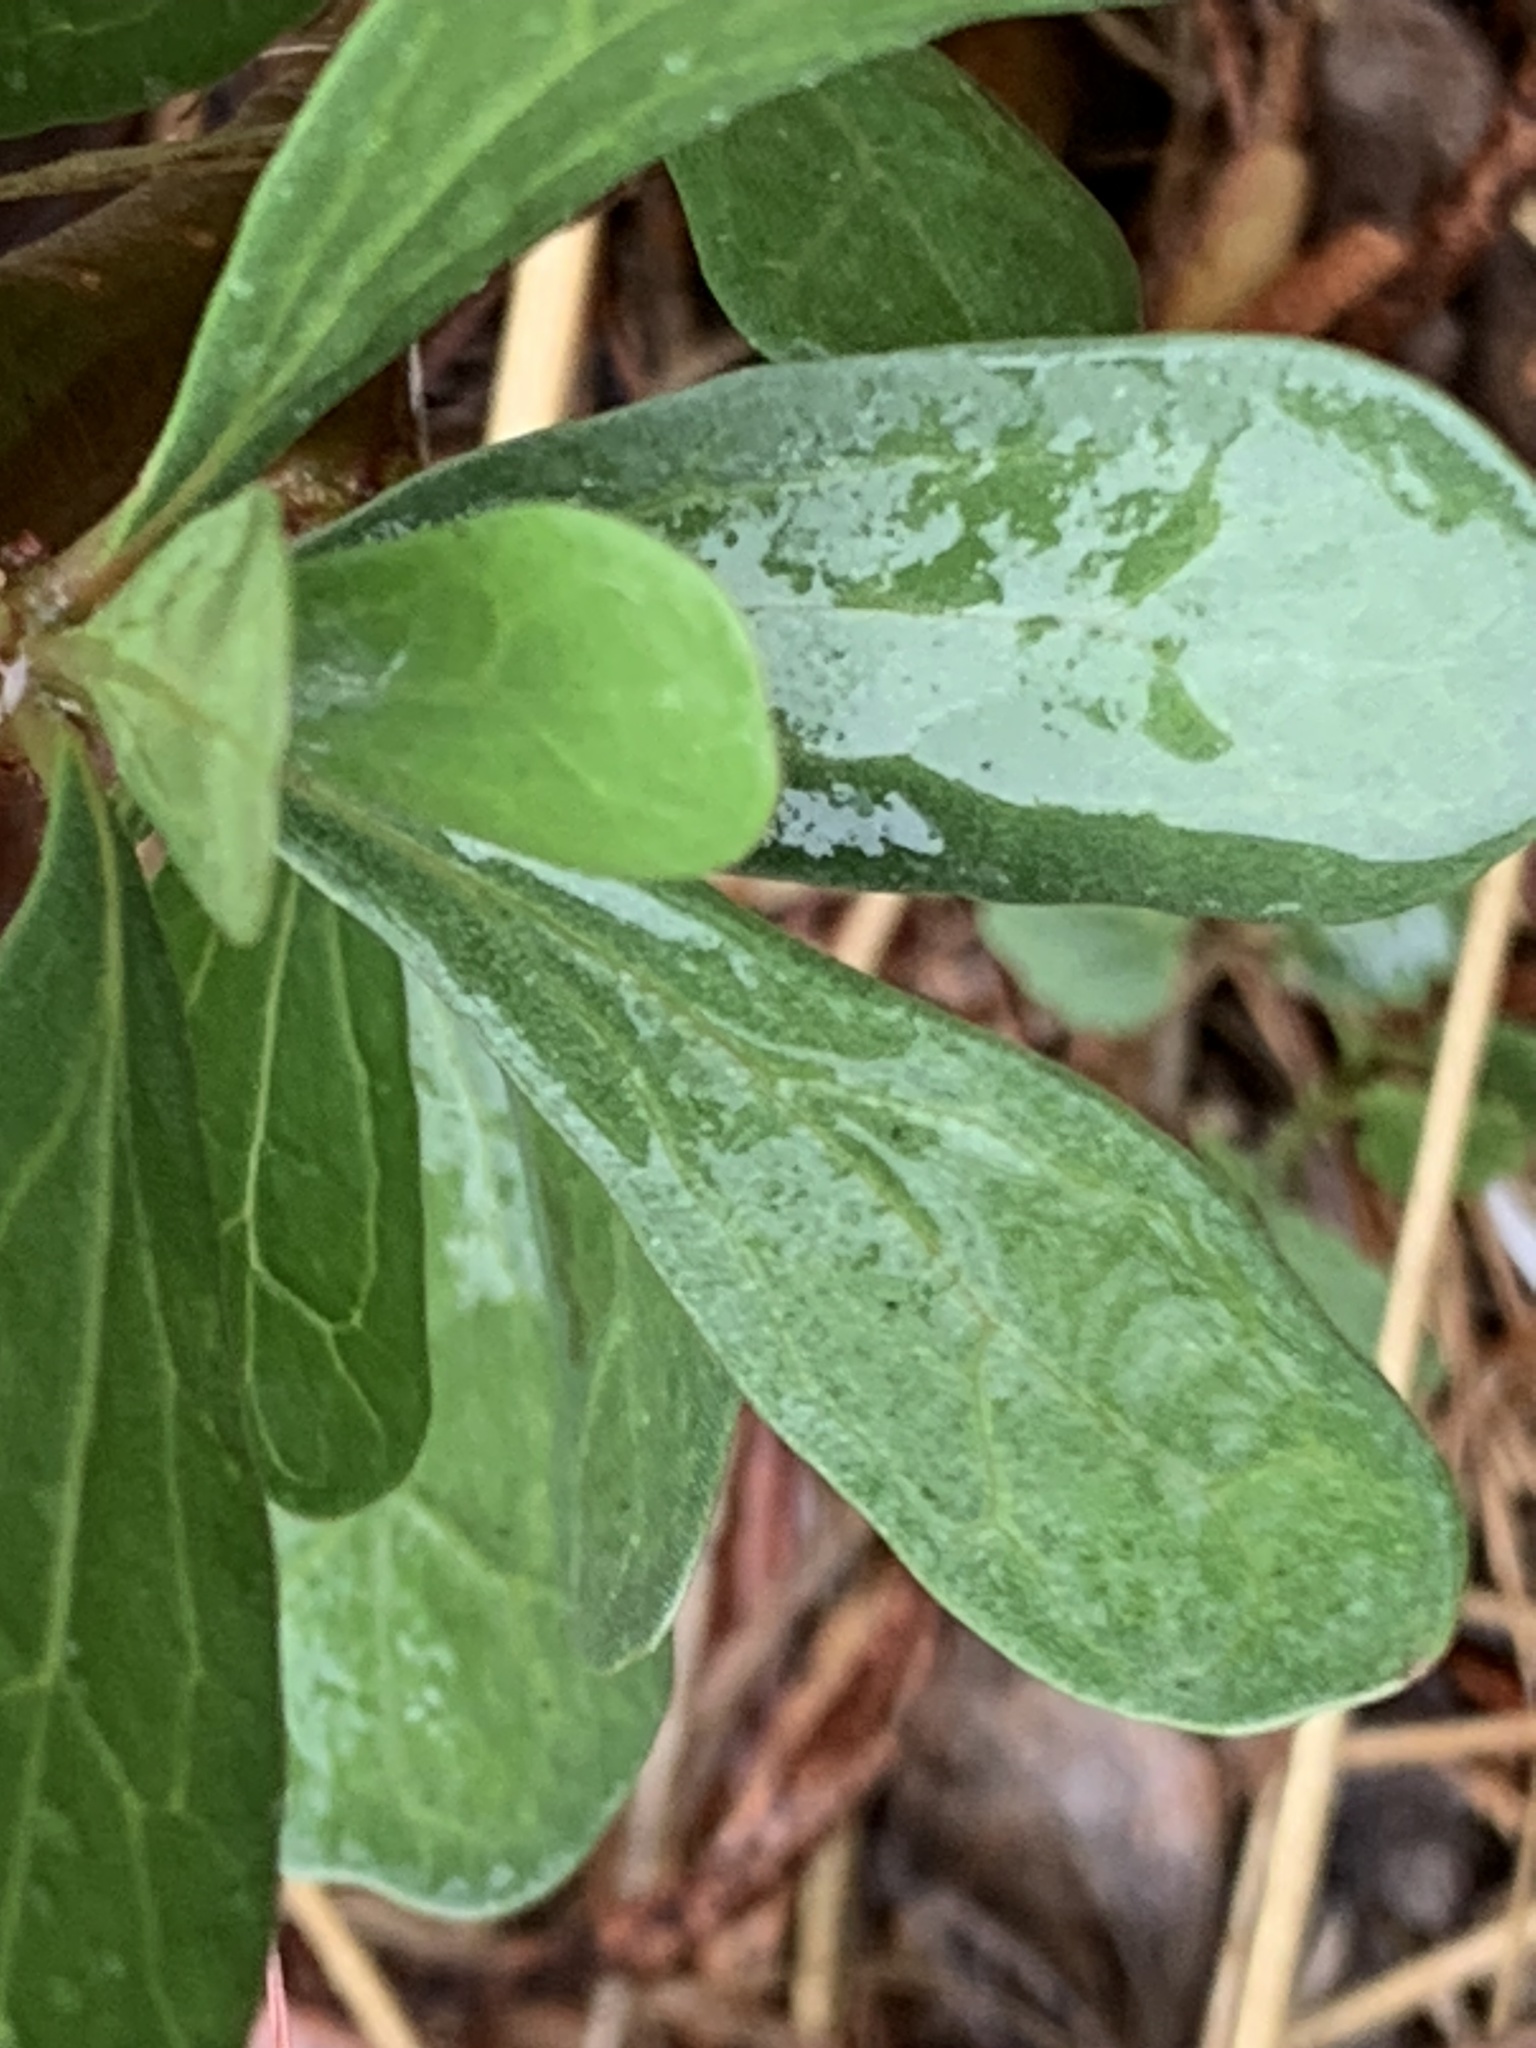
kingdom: Plantae
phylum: Tracheophyta
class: Magnoliopsida
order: Malpighiales
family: Euphorbiaceae
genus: Jatropha
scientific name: Jatropha dioica
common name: Leatherstem
